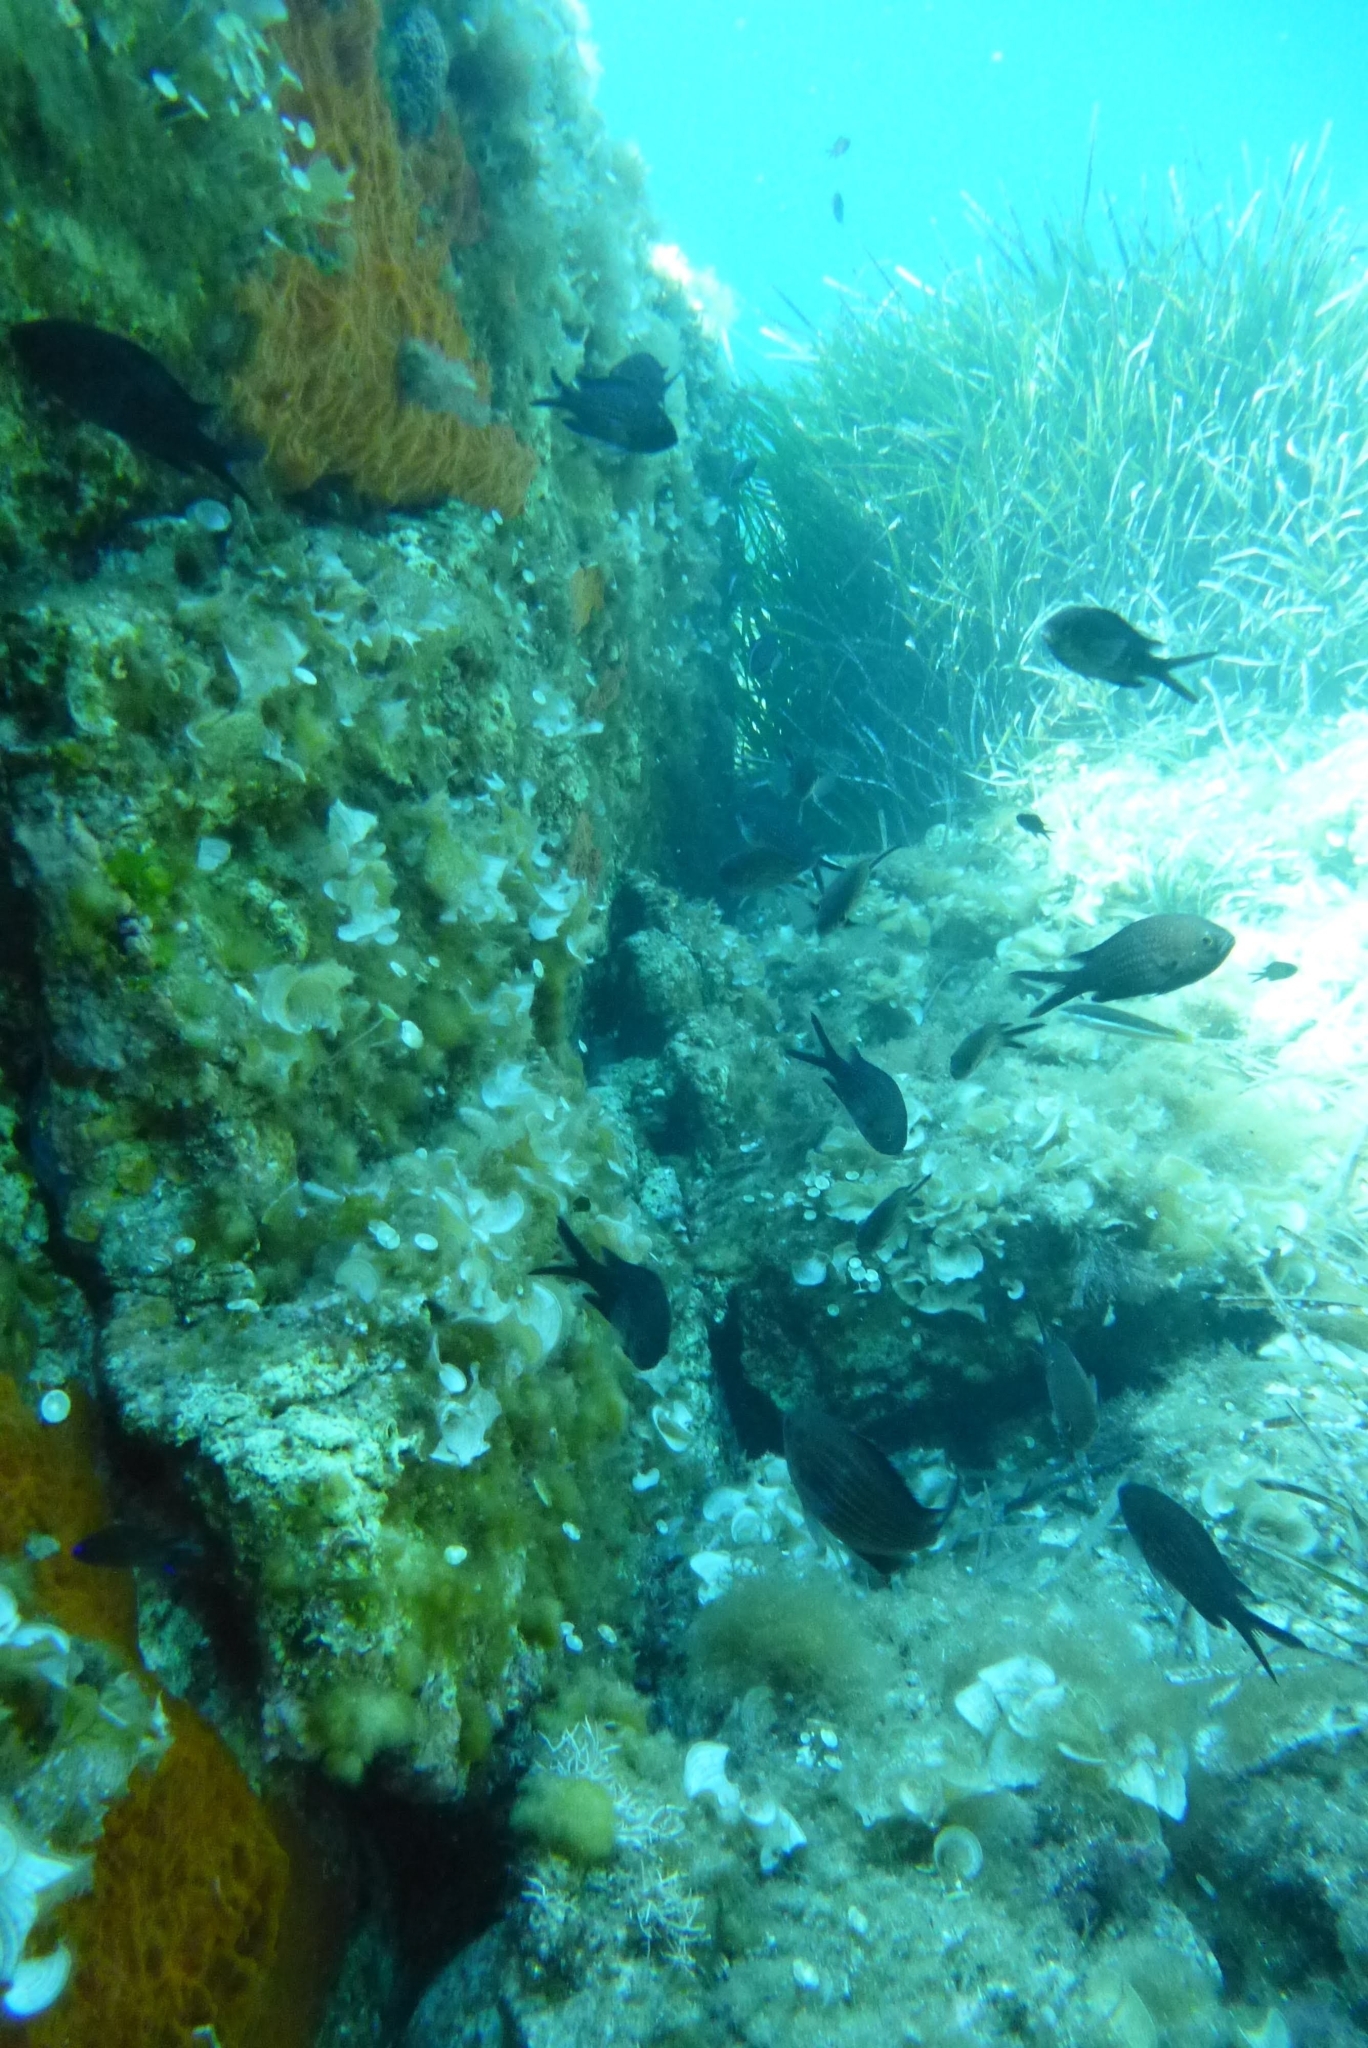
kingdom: Animalia
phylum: Chordata
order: Perciformes
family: Pomacentridae
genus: Chromis
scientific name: Chromis chromis
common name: Damselfish
